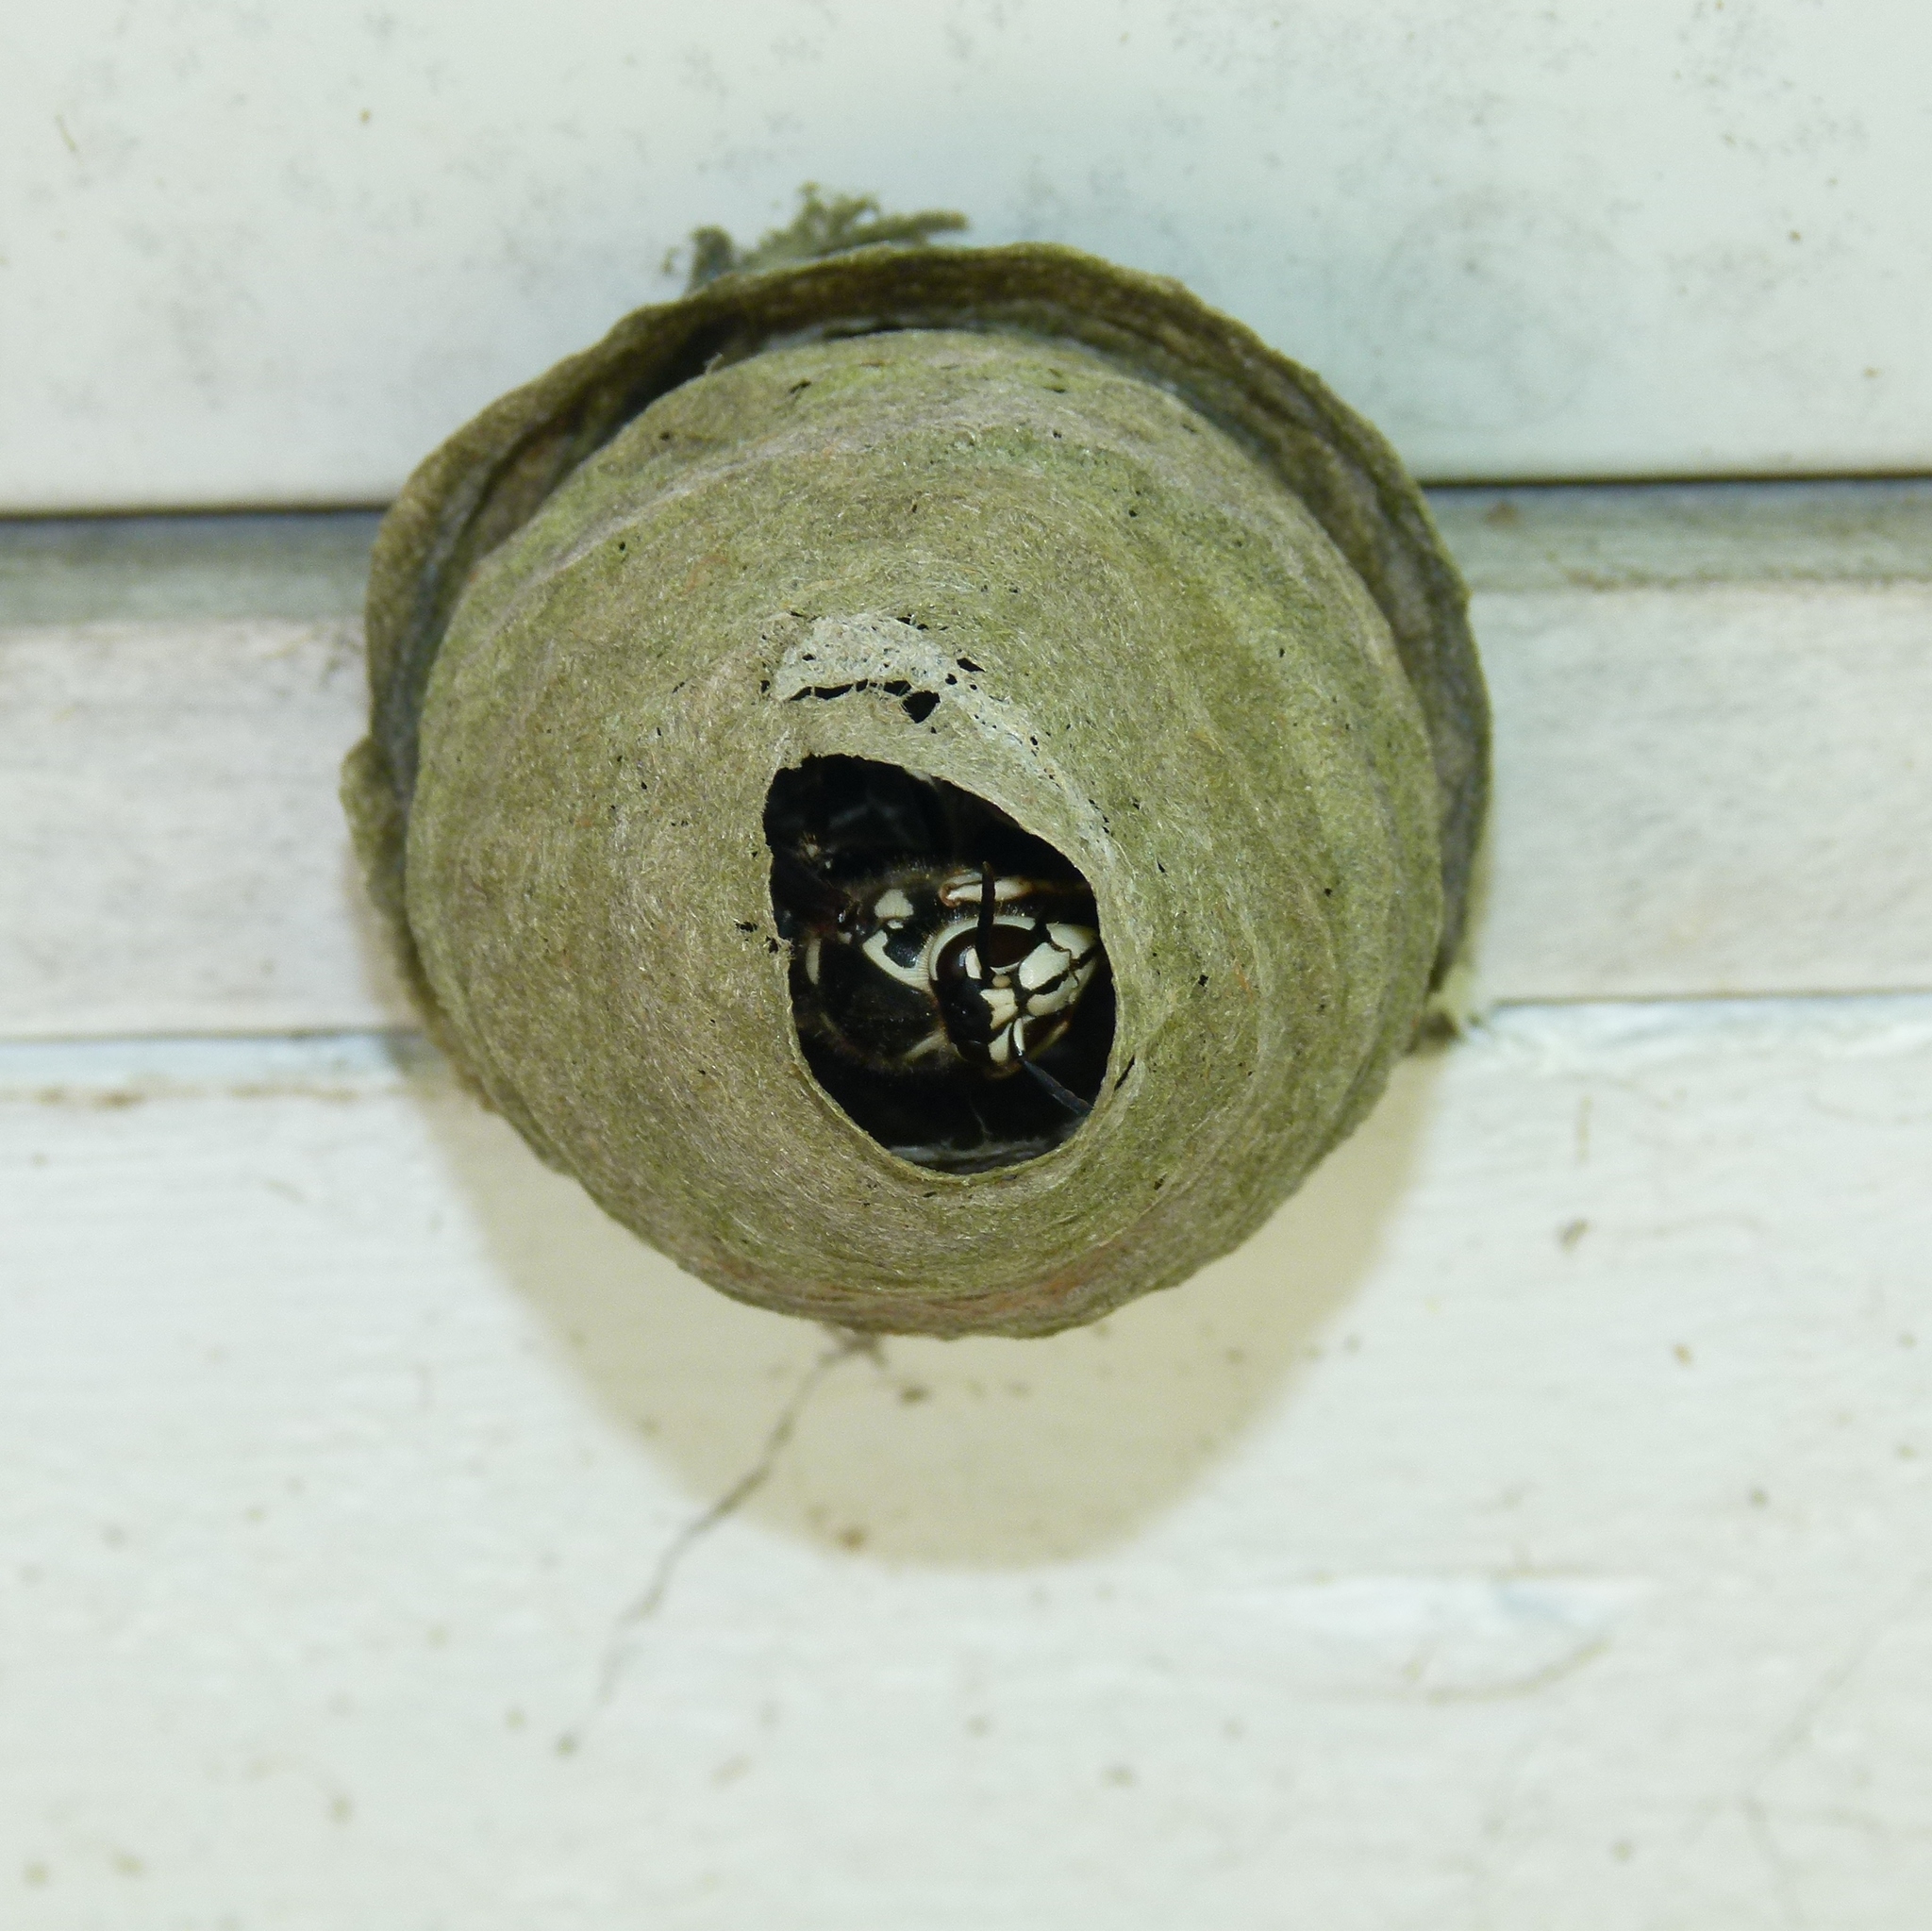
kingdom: Animalia
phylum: Arthropoda
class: Insecta
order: Hymenoptera
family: Vespidae
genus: Dolichovespula
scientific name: Dolichovespula maculata
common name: Bald-faced hornet
